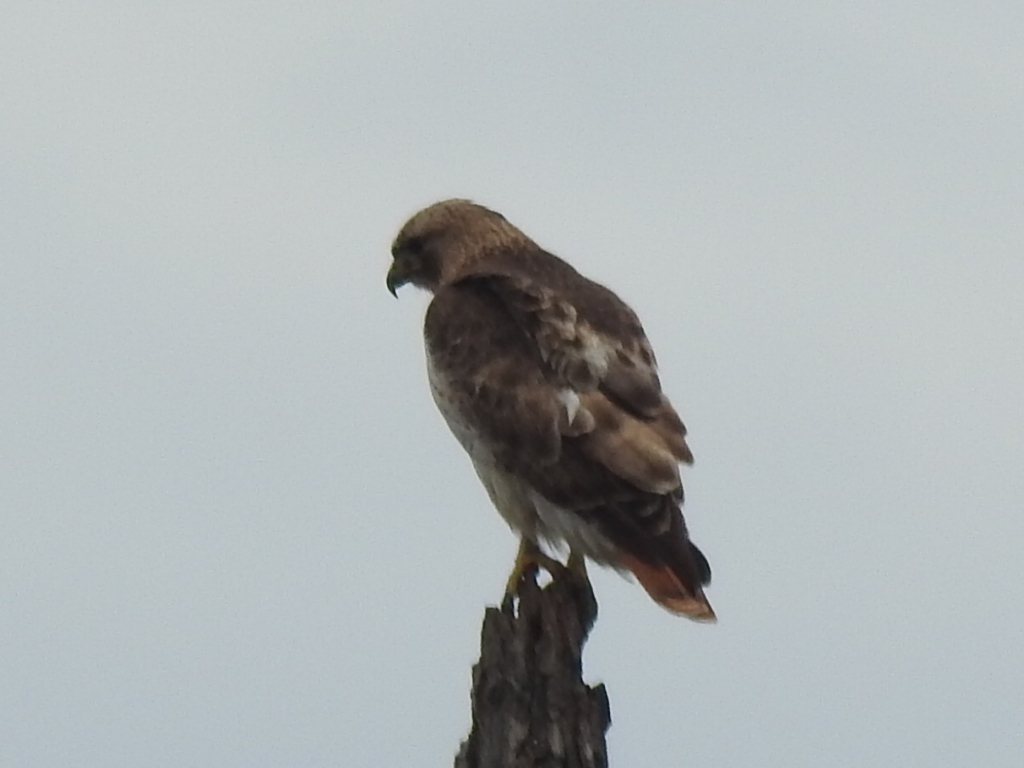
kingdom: Animalia
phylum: Chordata
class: Aves
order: Accipitriformes
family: Accipitridae
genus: Buteo
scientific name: Buteo jamaicensis
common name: Red-tailed hawk
